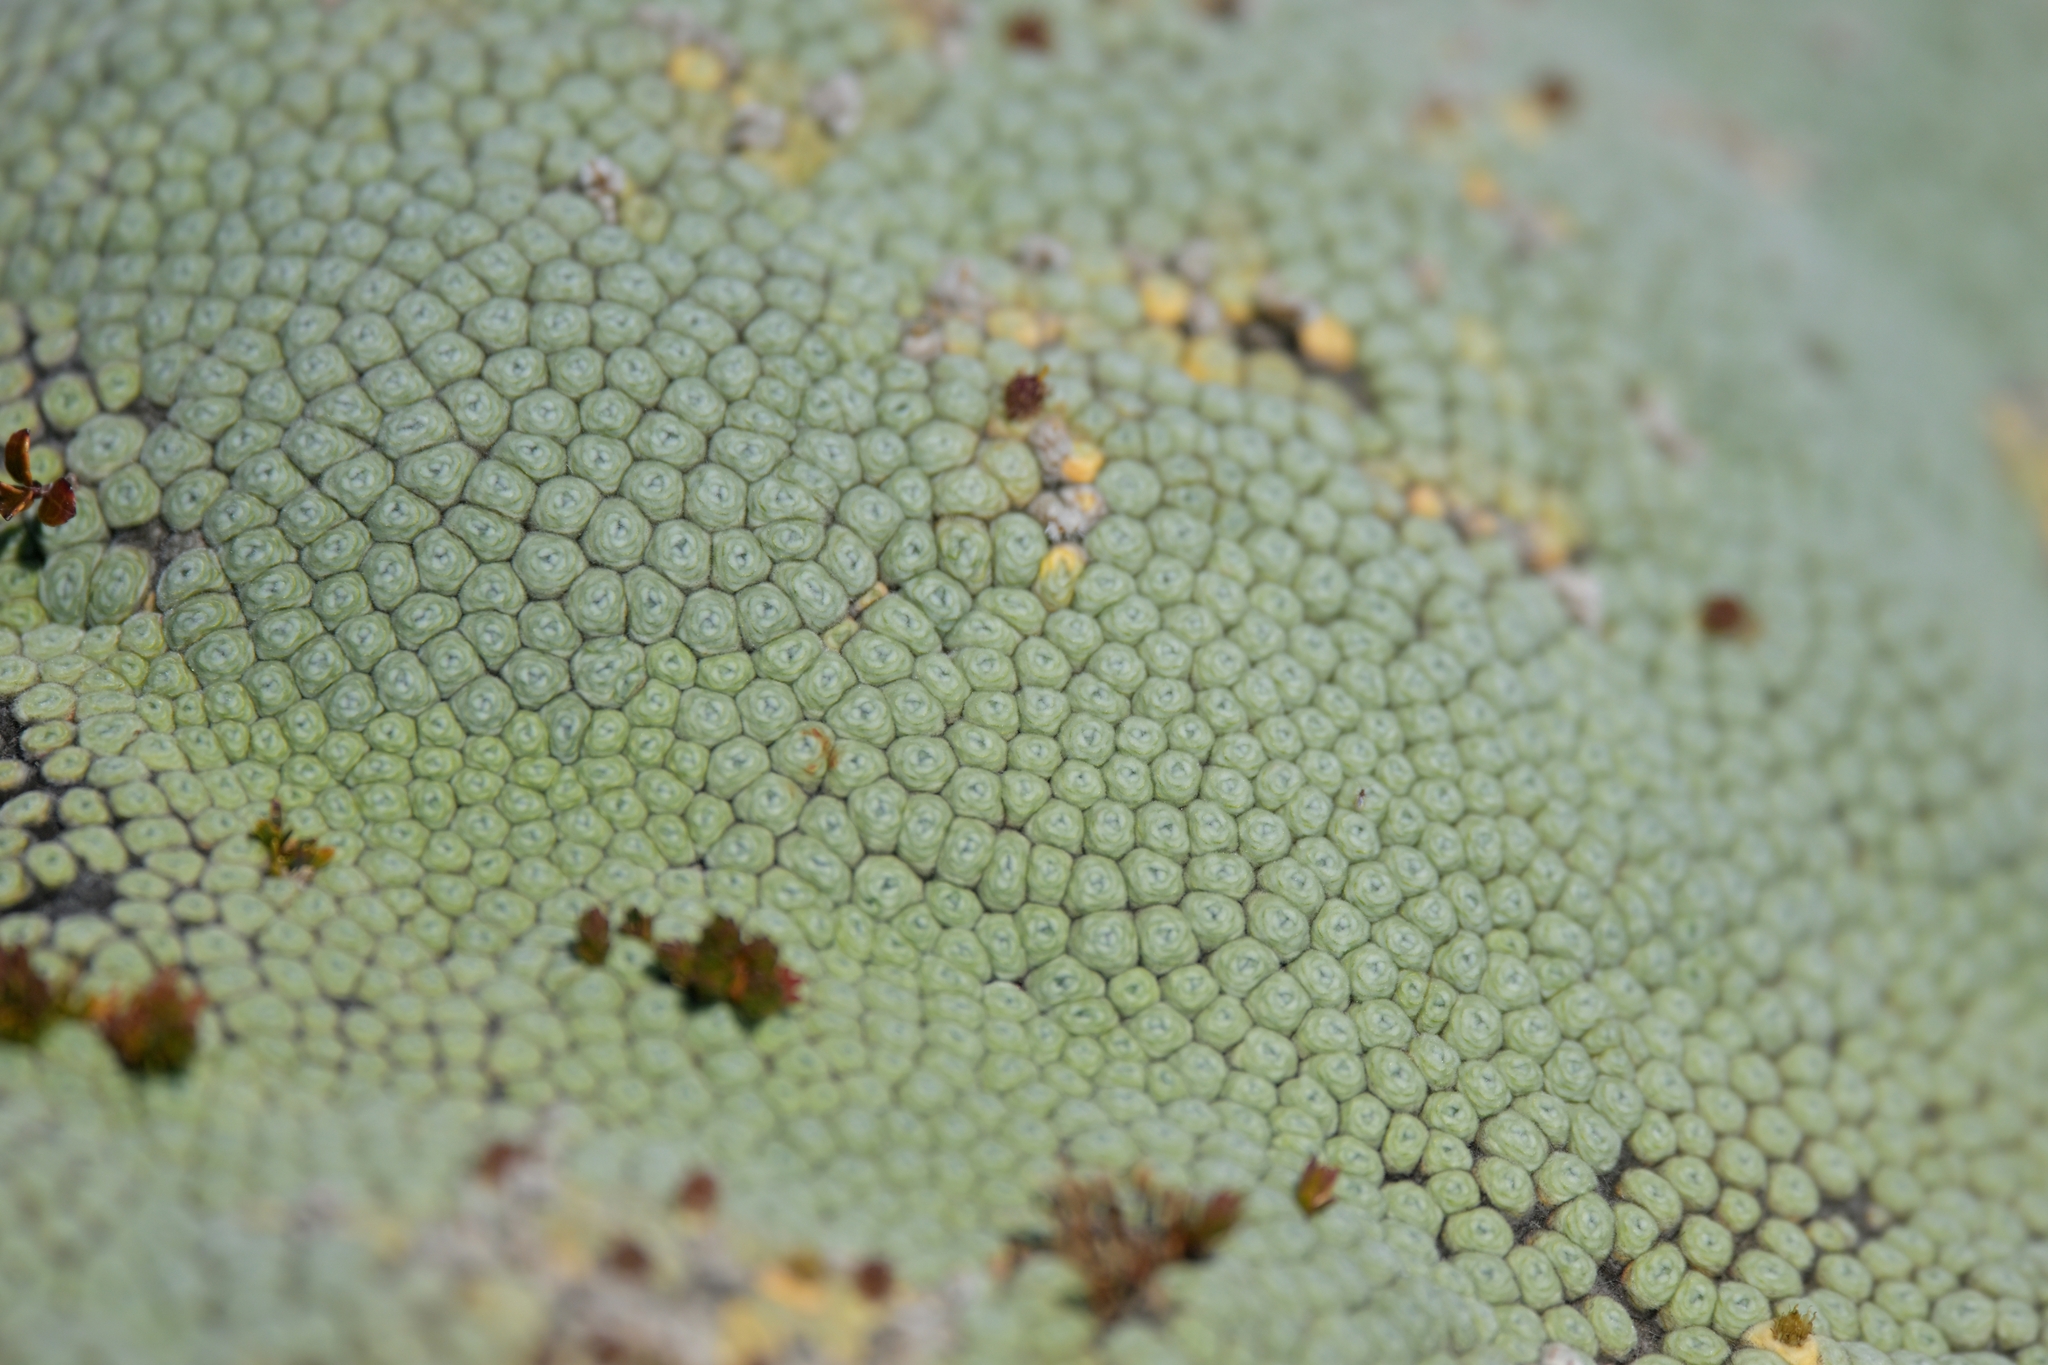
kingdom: Plantae
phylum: Tracheophyta
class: Magnoliopsida
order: Asterales
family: Asteraceae
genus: Raoulia
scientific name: Raoulia eximia
